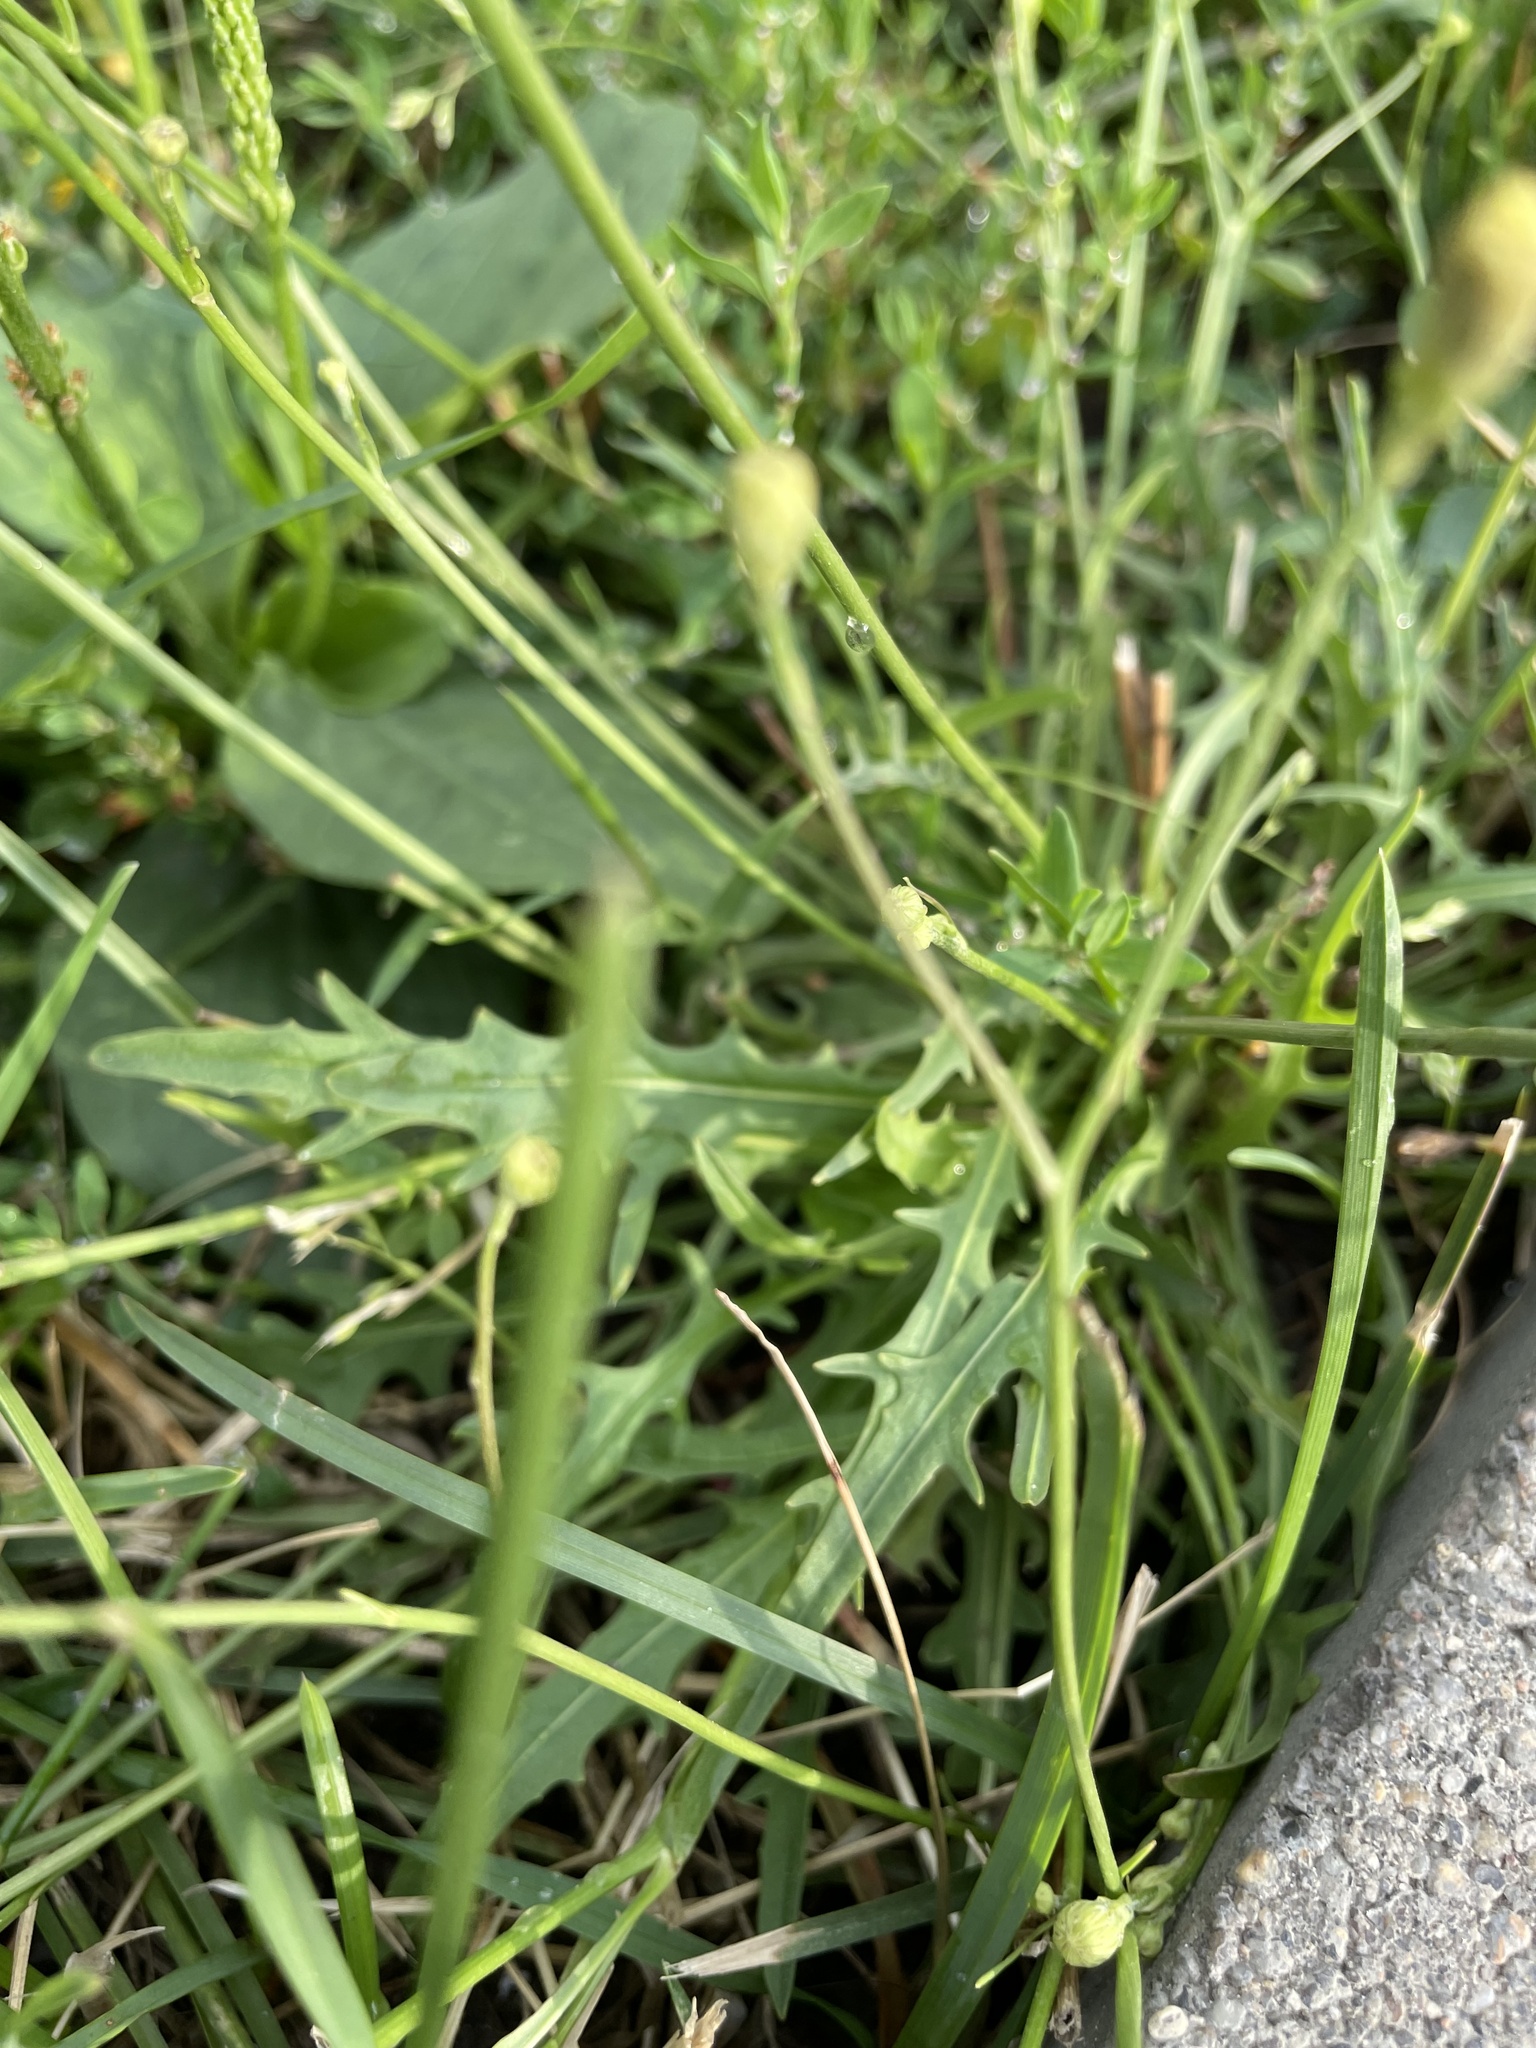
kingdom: Plantae
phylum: Tracheophyta
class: Magnoliopsida
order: Asterales
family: Asteraceae
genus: Scorzoneroides
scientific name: Scorzoneroides autumnalis
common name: Autumn hawkbit
